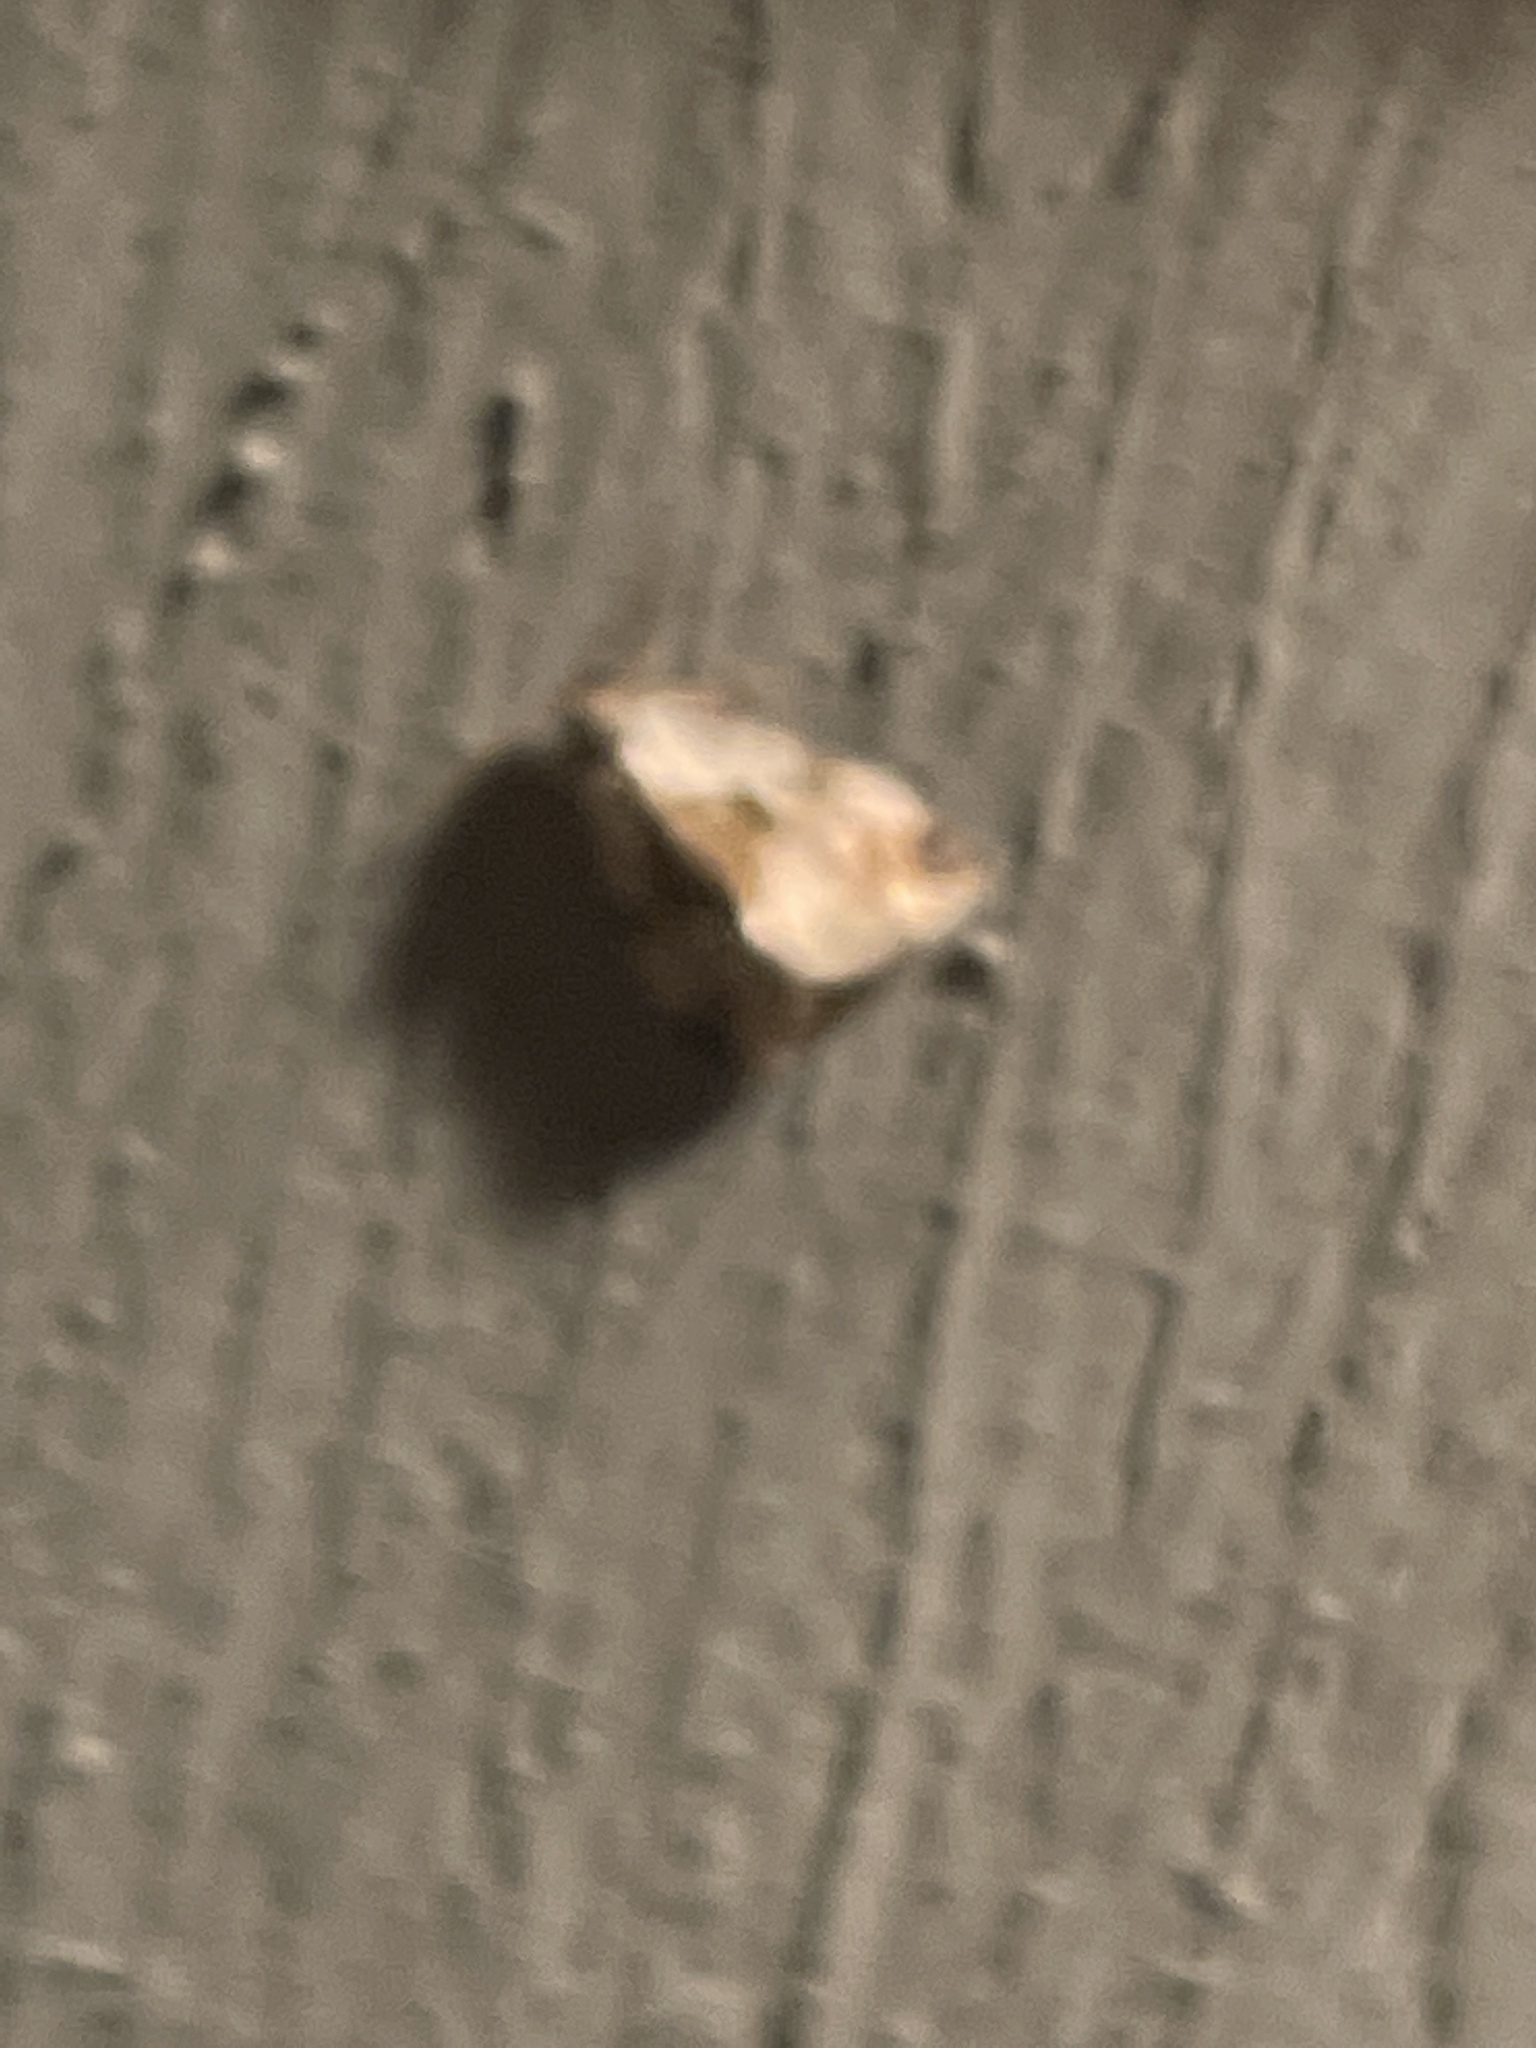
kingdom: Animalia
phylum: Arthropoda
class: Insecta
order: Lepidoptera
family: Noctuidae
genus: Maliattha
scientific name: Maliattha synochitis
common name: Black-dotted glyph
